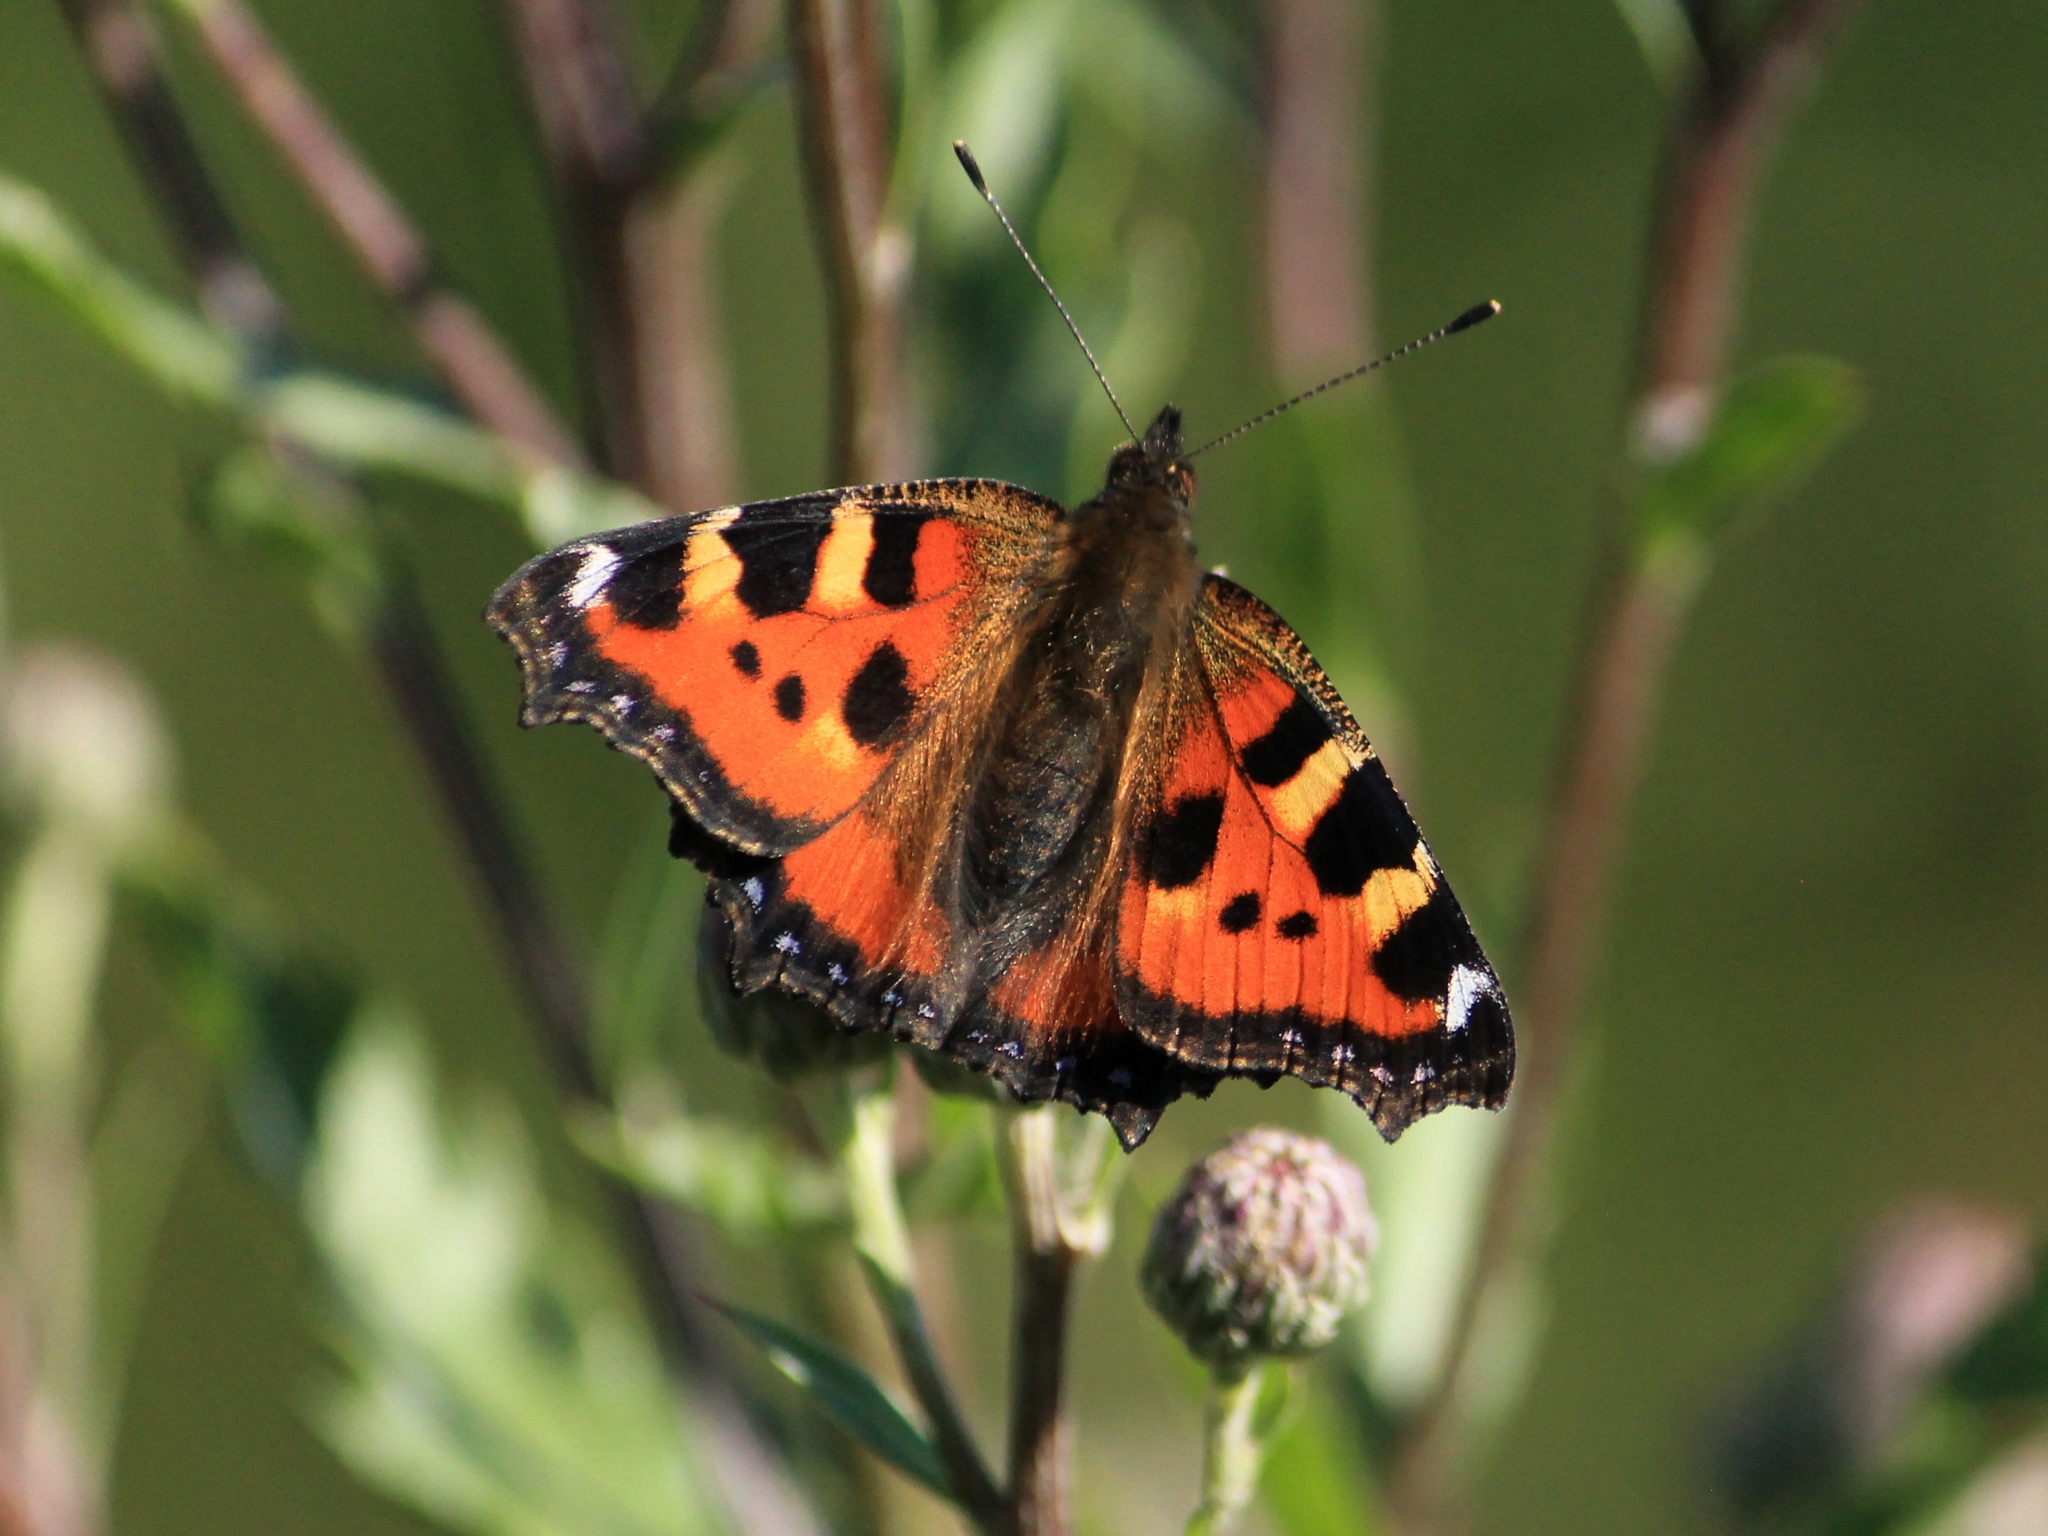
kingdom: Animalia
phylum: Arthropoda
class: Insecta
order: Lepidoptera
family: Nymphalidae
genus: Aglais
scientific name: Aglais urticae
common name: Small tortoiseshell
